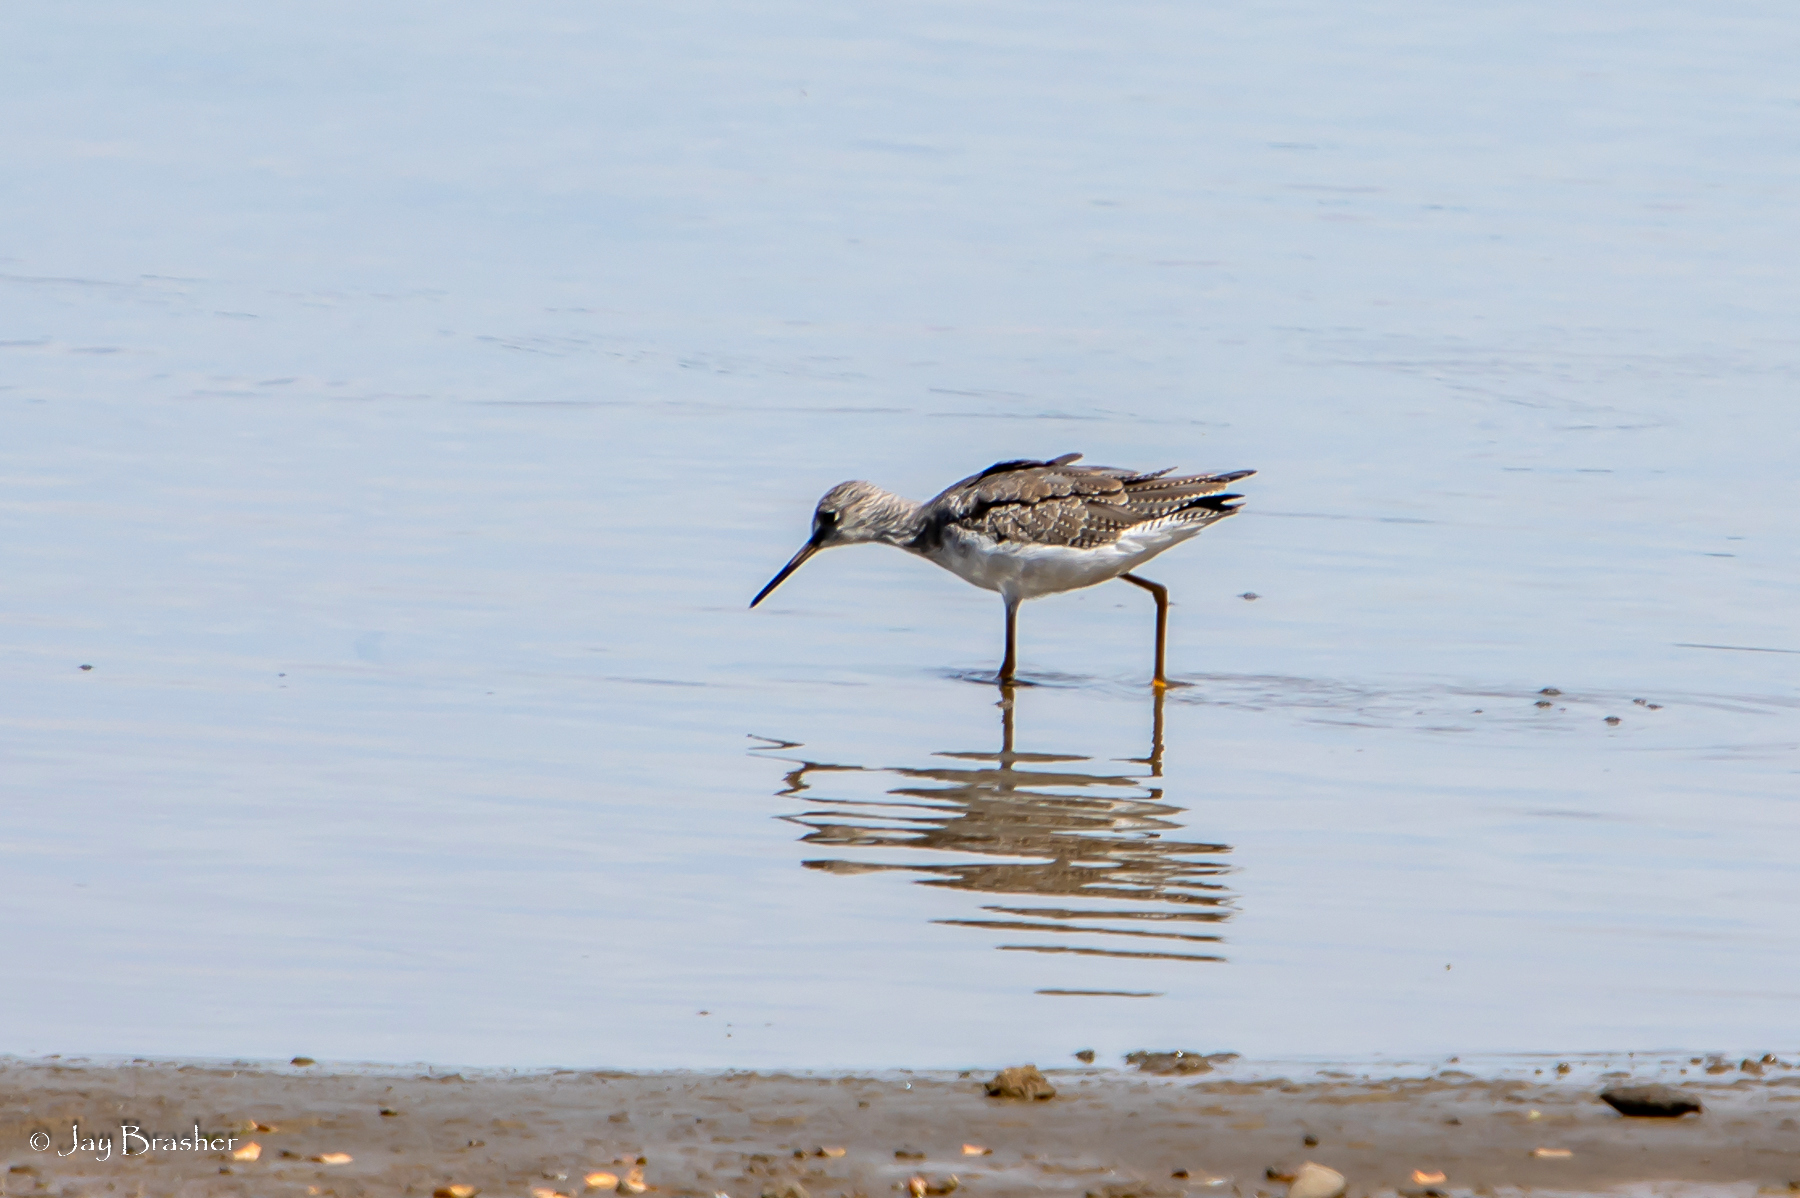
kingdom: Animalia
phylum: Chordata
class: Aves
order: Charadriiformes
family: Scolopacidae
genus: Tringa
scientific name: Tringa flavipes
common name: Lesser yellowlegs
